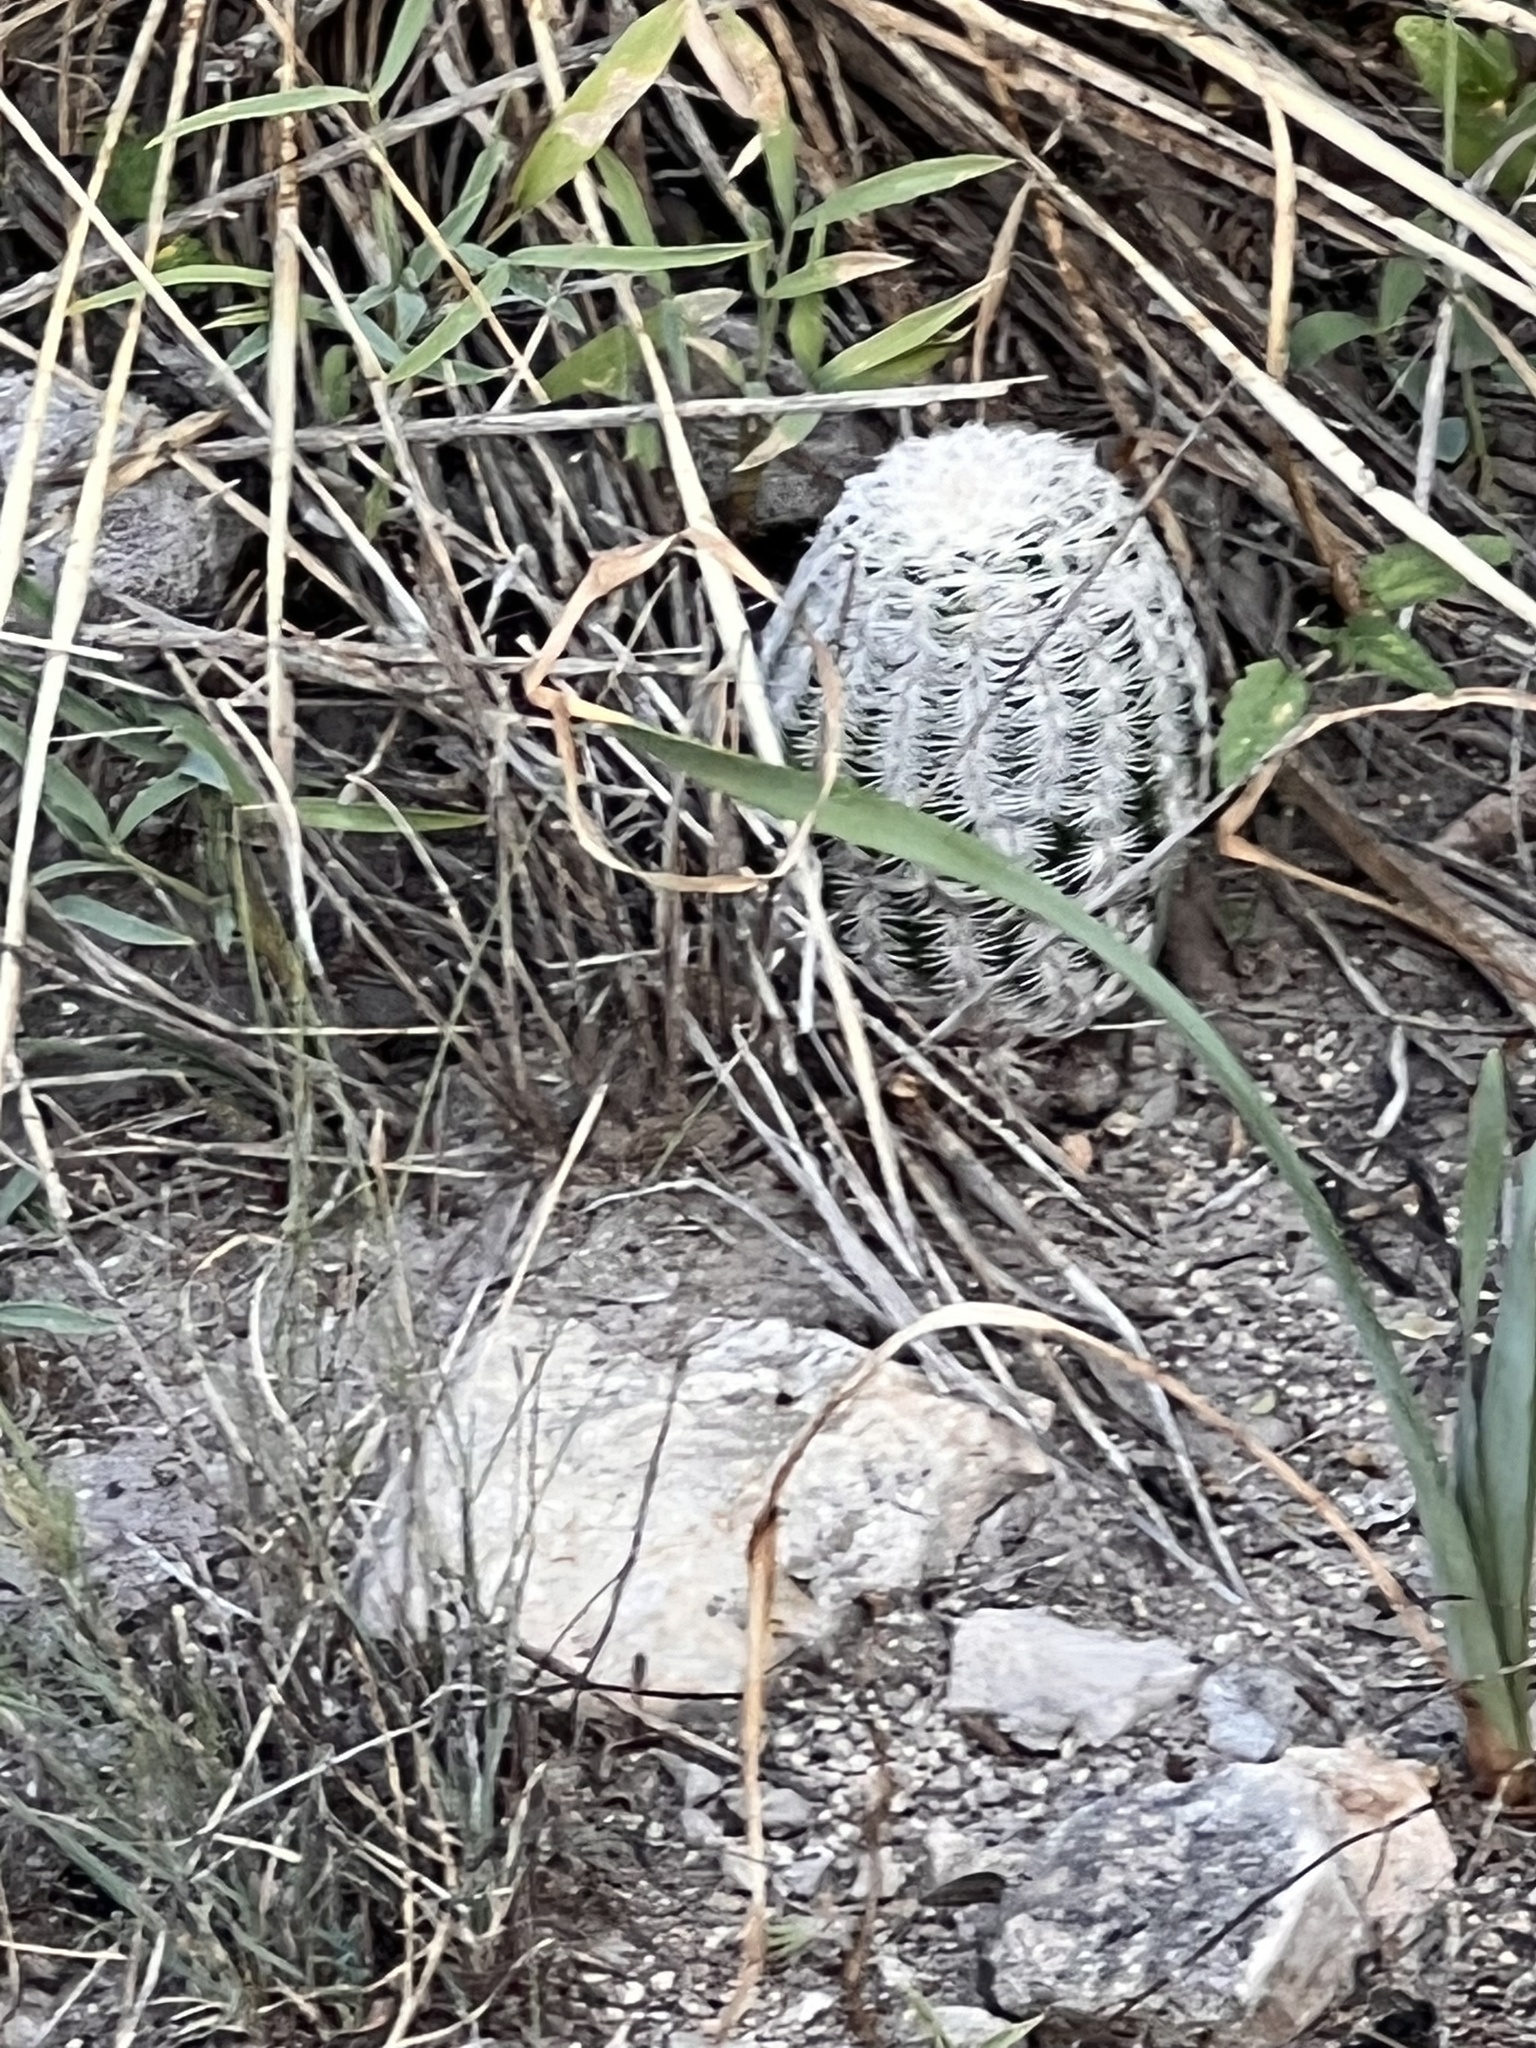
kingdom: Plantae
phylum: Tracheophyta
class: Magnoliopsida
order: Caryophyllales
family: Cactaceae
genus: Echinocereus
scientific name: Echinocereus reichenbachii
